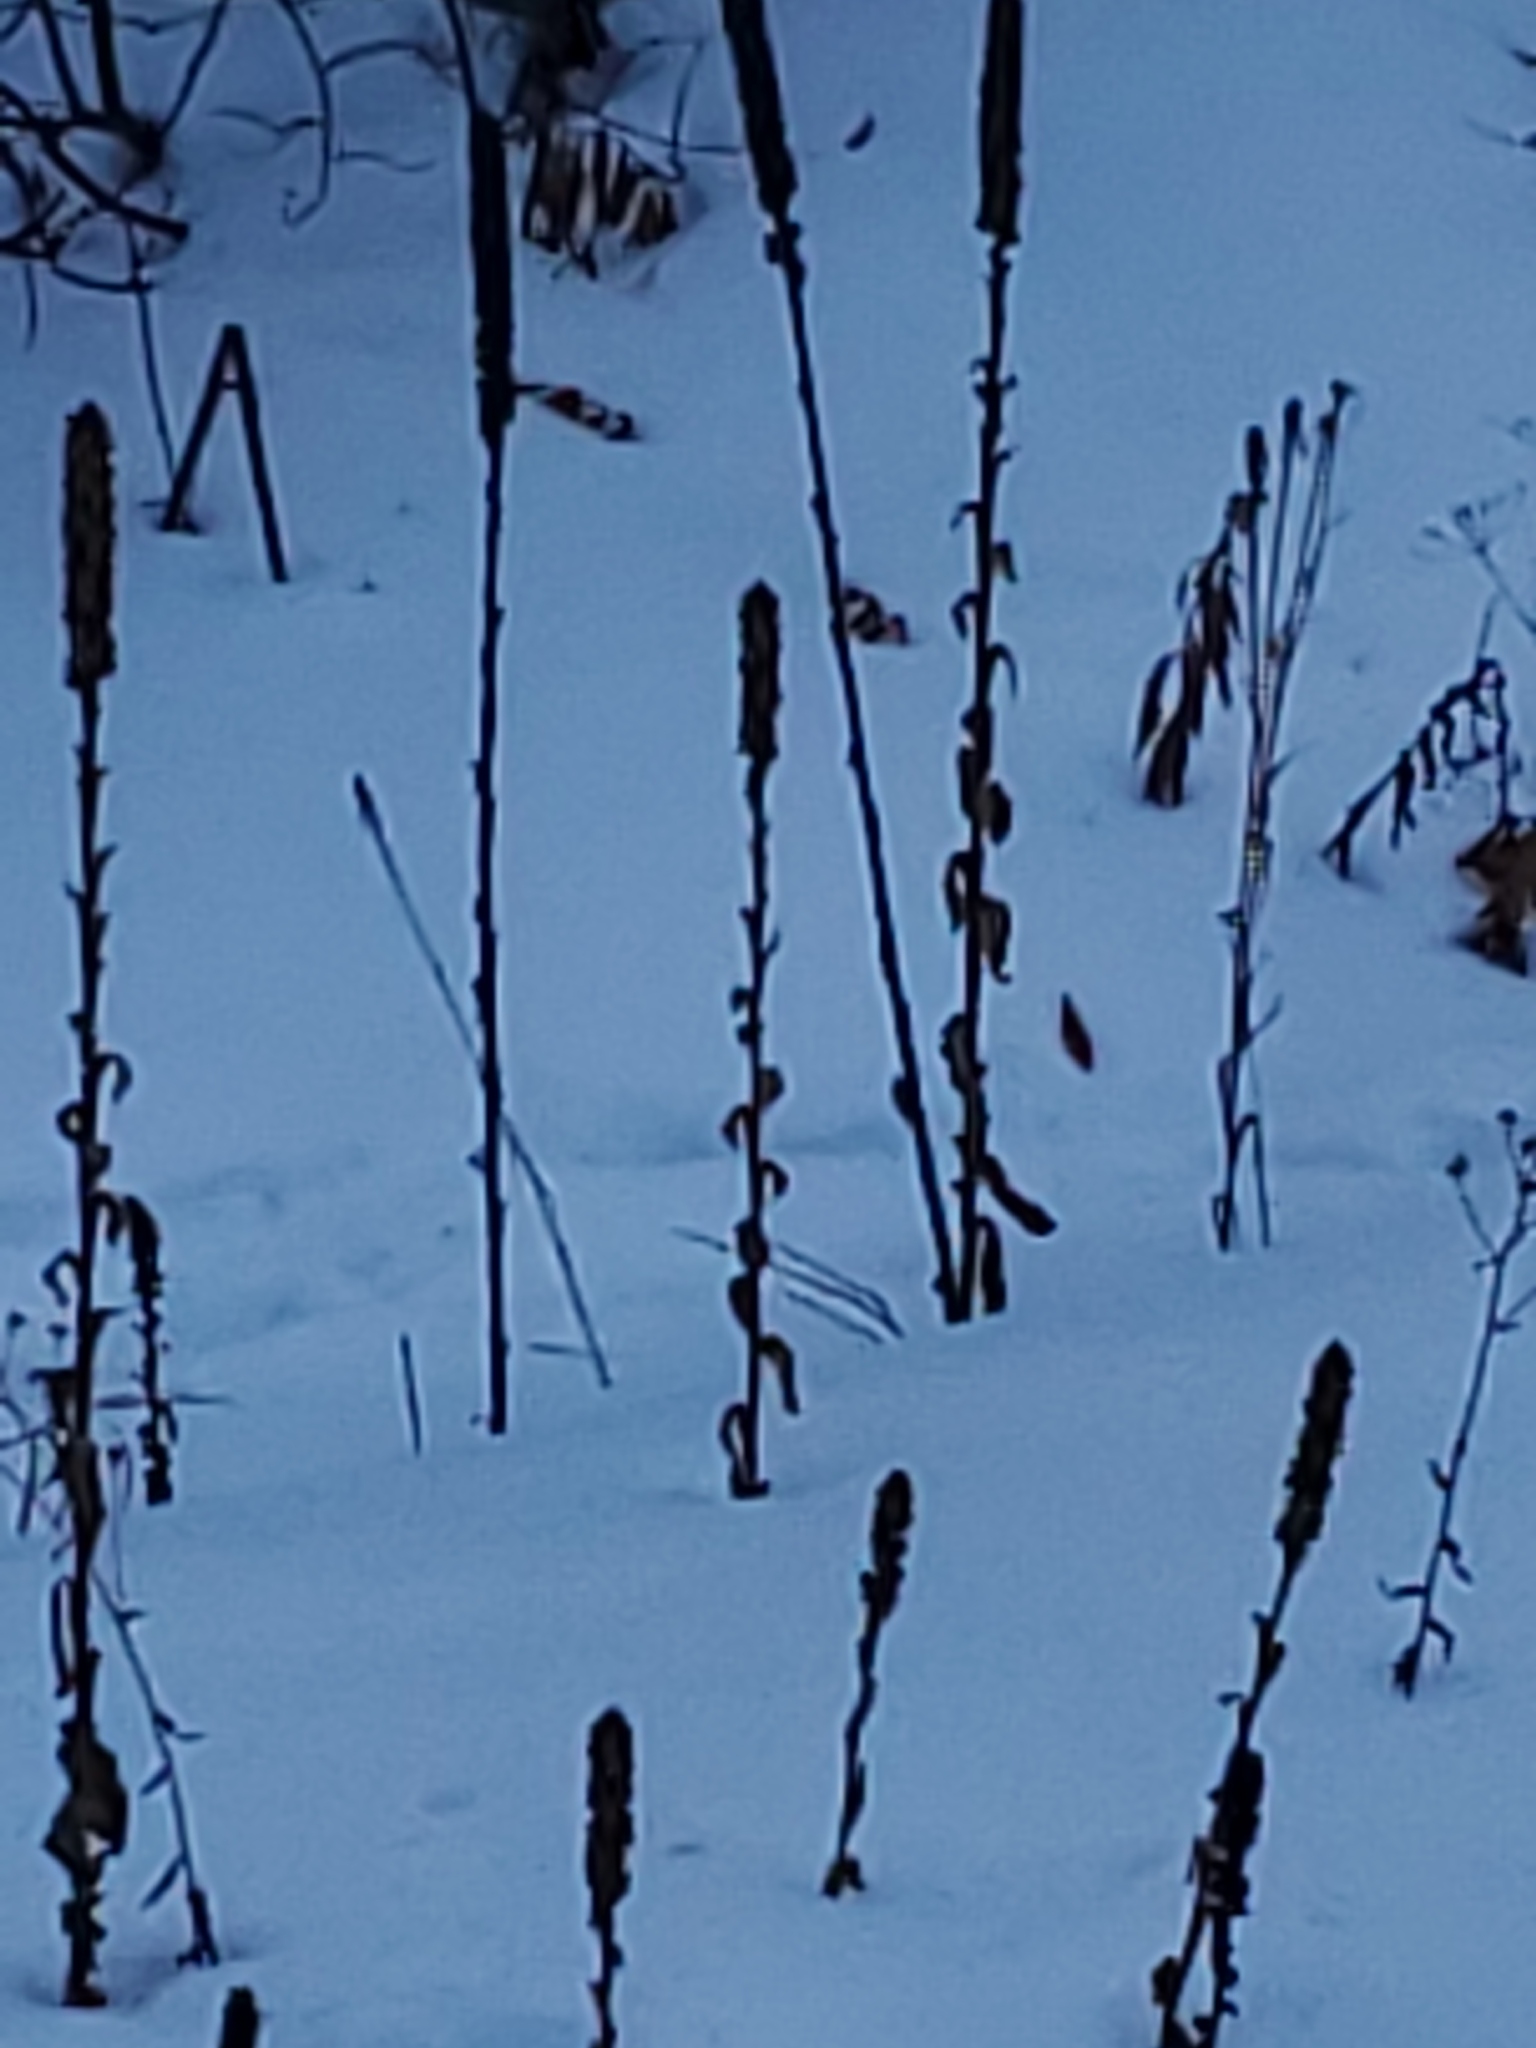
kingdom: Plantae
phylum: Tracheophyta
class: Magnoliopsida
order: Lamiales
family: Scrophulariaceae
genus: Verbascum
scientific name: Verbascum thapsus
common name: Common mullein
